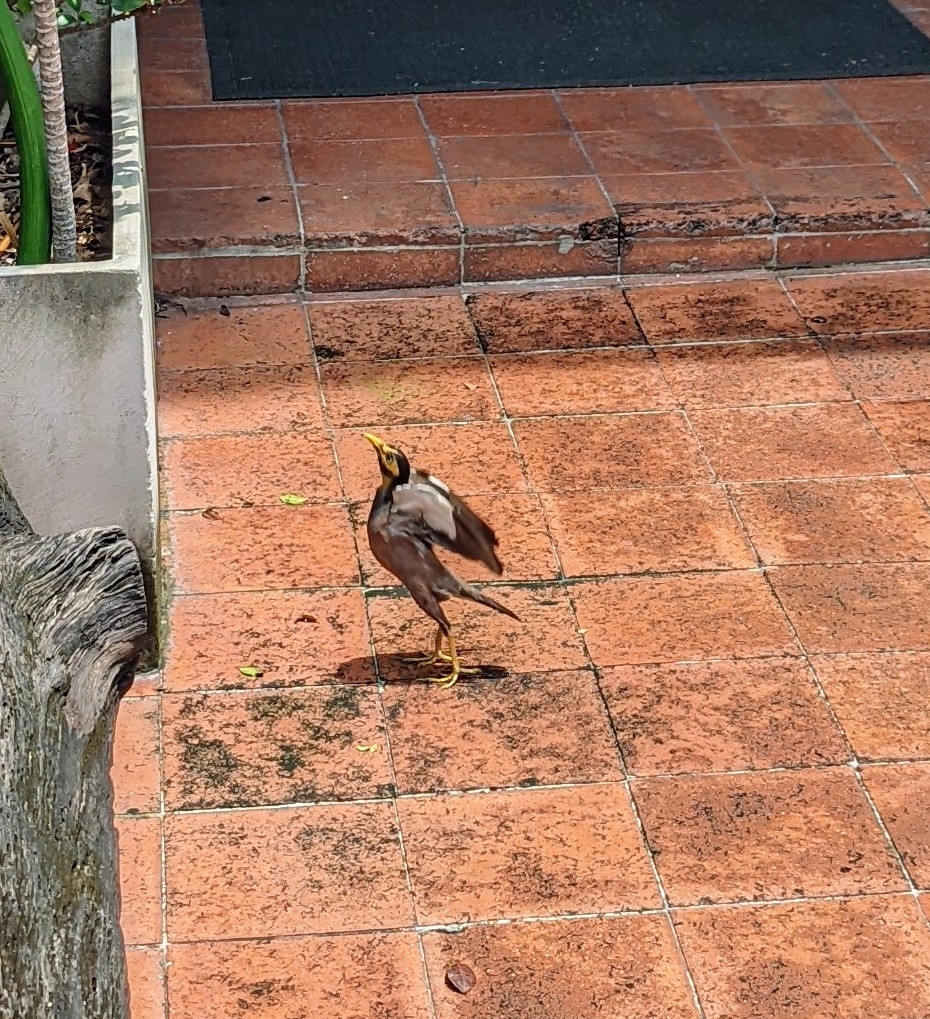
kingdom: Animalia
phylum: Chordata
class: Aves
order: Passeriformes
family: Sturnidae
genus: Acridotheres
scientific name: Acridotheres tristis
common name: Common myna
